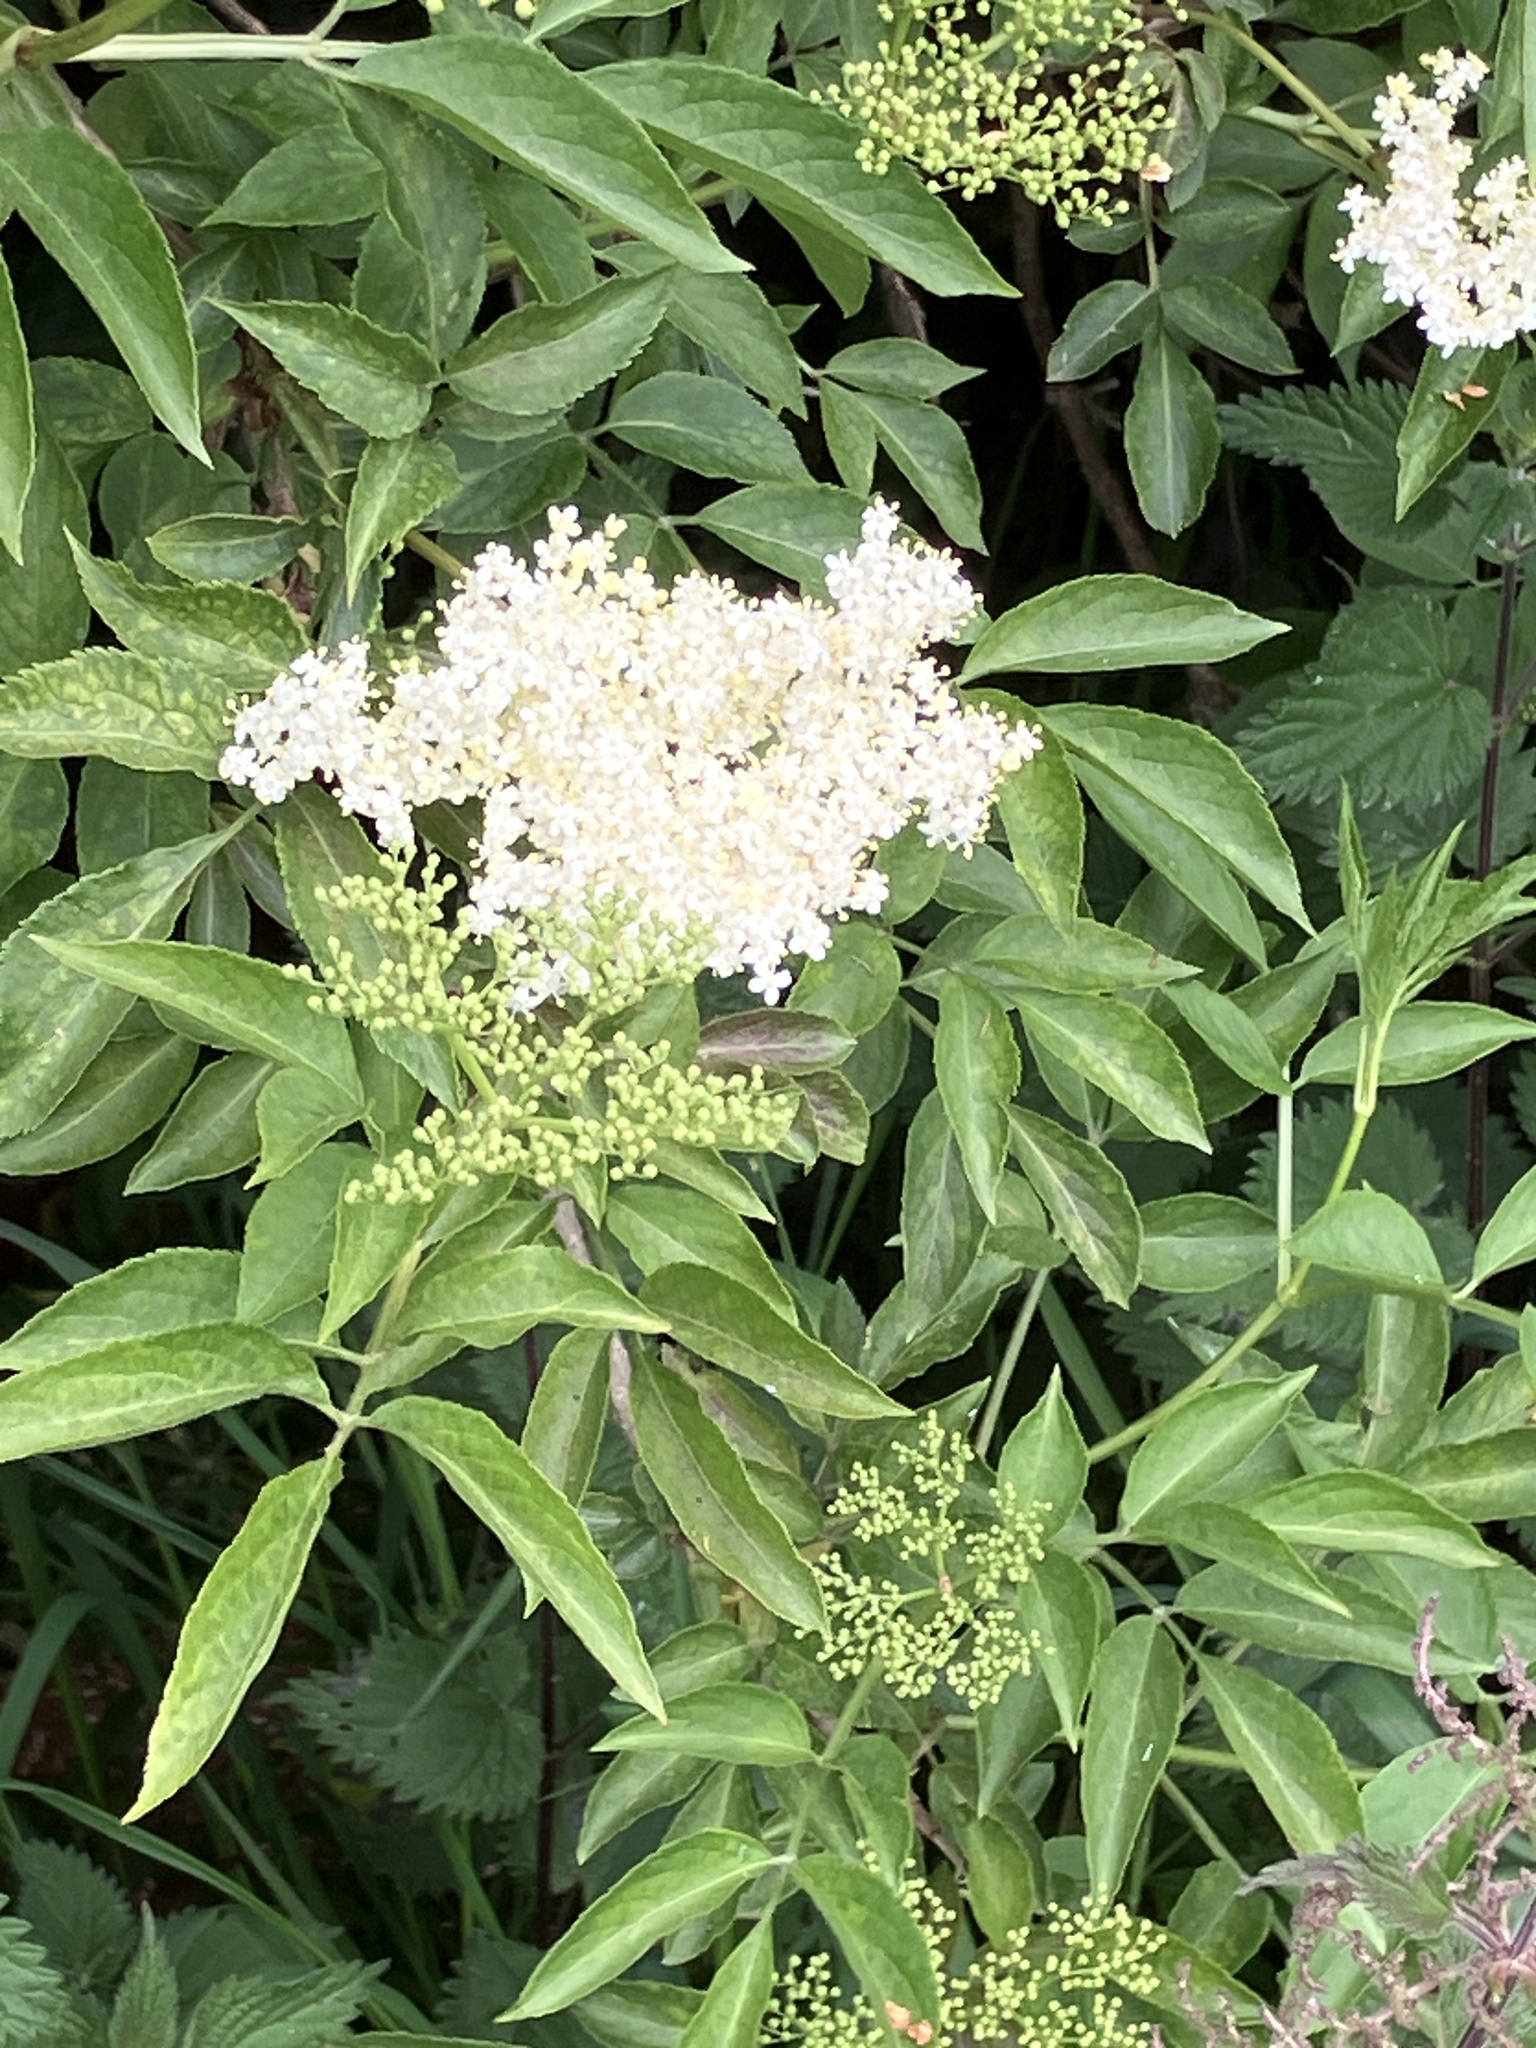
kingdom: Plantae
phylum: Tracheophyta
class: Magnoliopsida
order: Dipsacales
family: Viburnaceae
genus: Sambucus
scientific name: Sambucus nigra
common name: Elder
